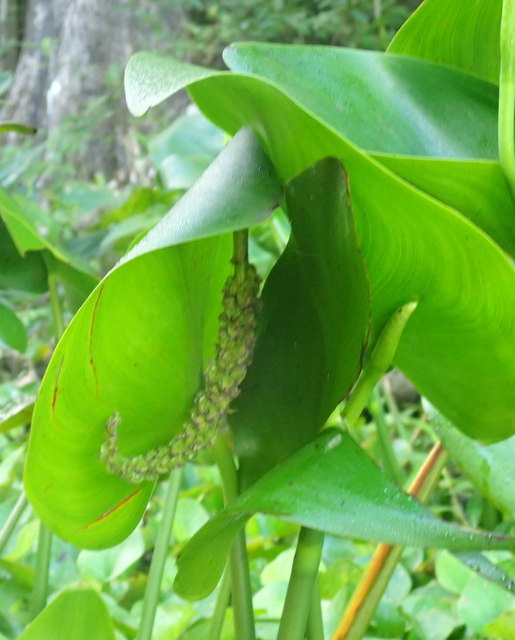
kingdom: Plantae
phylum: Tracheophyta
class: Liliopsida
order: Commelinales
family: Pontederiaceae
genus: Pontederia
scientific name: Pontederia cordata
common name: Pickerelweed
